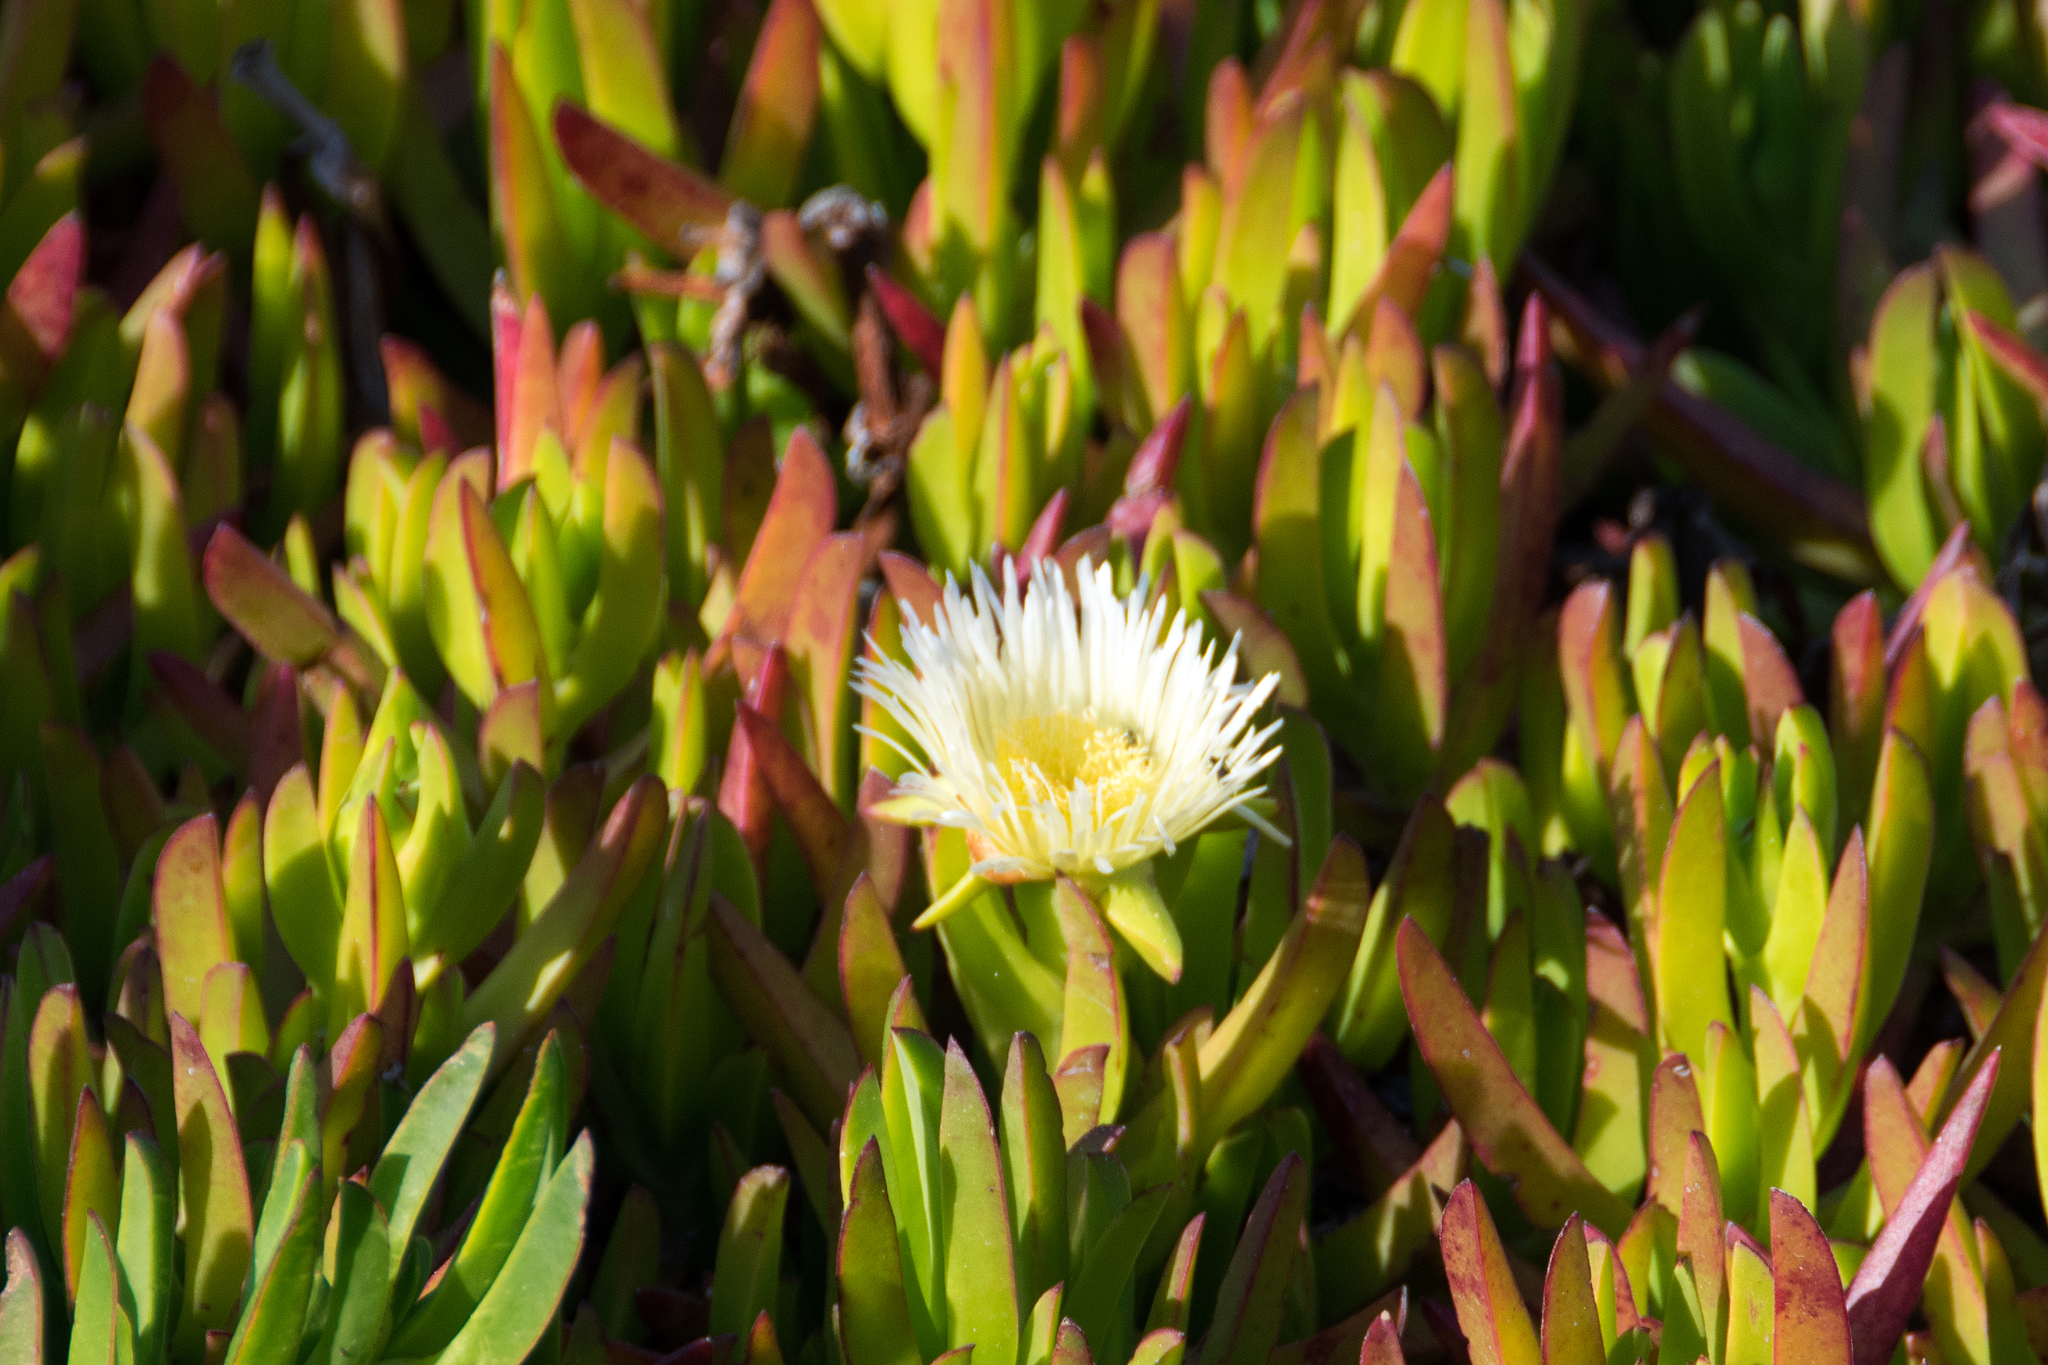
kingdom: Plantae
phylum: Tracheophyta
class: Magnoliopsida
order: Caryophyllales
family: Aizoaceae
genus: Carpobrotus
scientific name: Carpobrotus edulis
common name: Hottentot-fig
